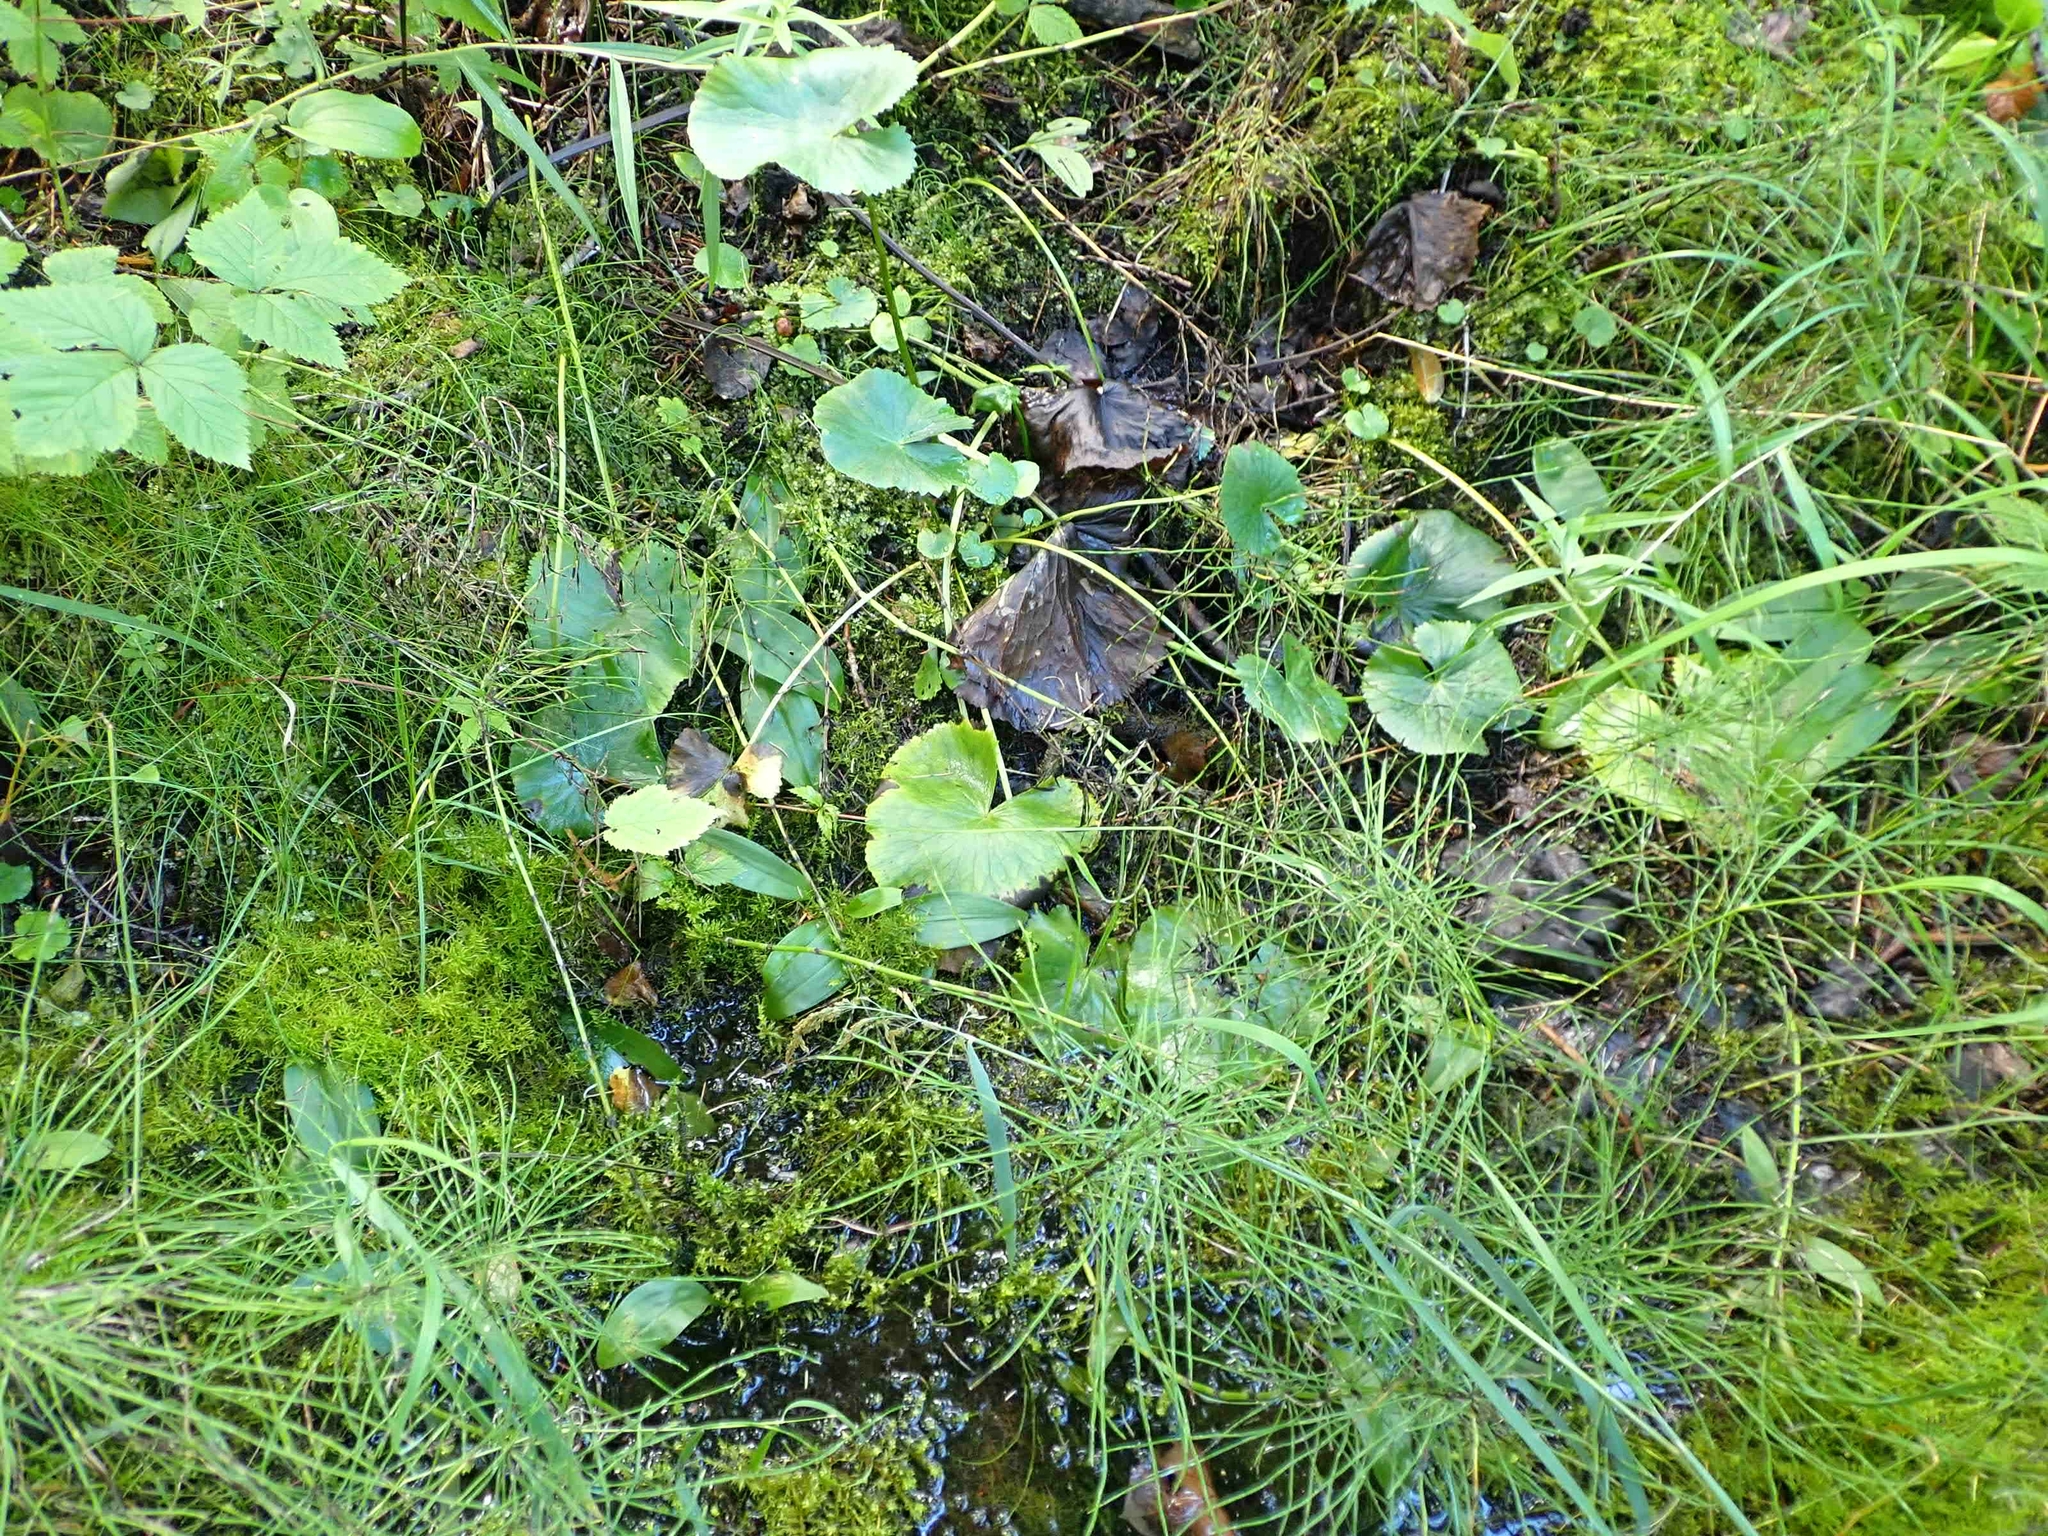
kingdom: Plantae
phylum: Tracheophyta
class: Magnoliopsida
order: Ranunculales
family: Ranunculaceae
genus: Caltha
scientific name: Caltha palustris
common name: Marsh marigold
